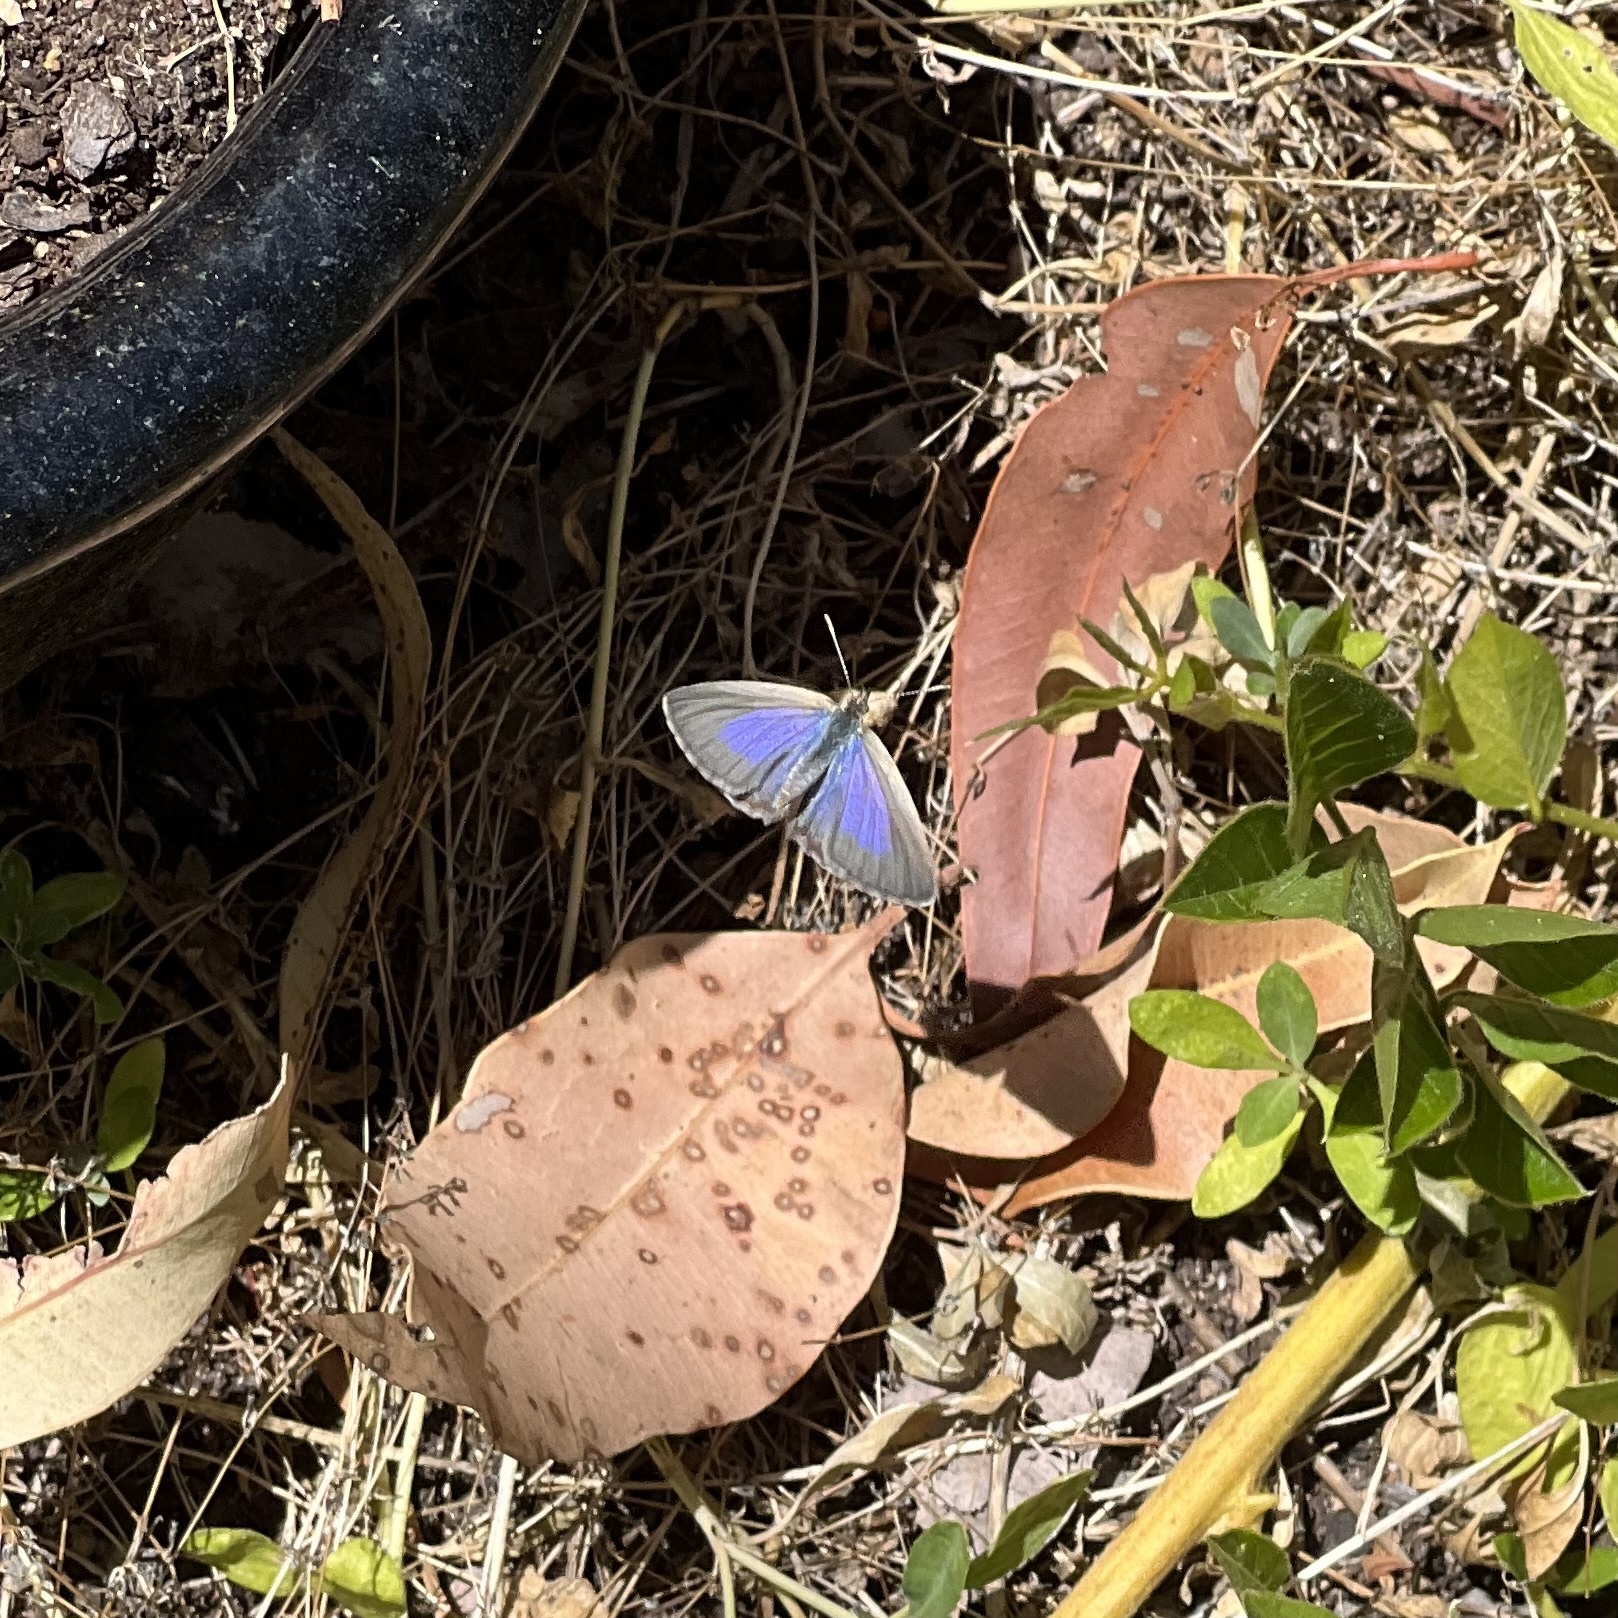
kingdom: Animalia
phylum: Arthropoda
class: Insecta
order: Lepidoptera
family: Lycaenidae
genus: Candalides
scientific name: Candalides
